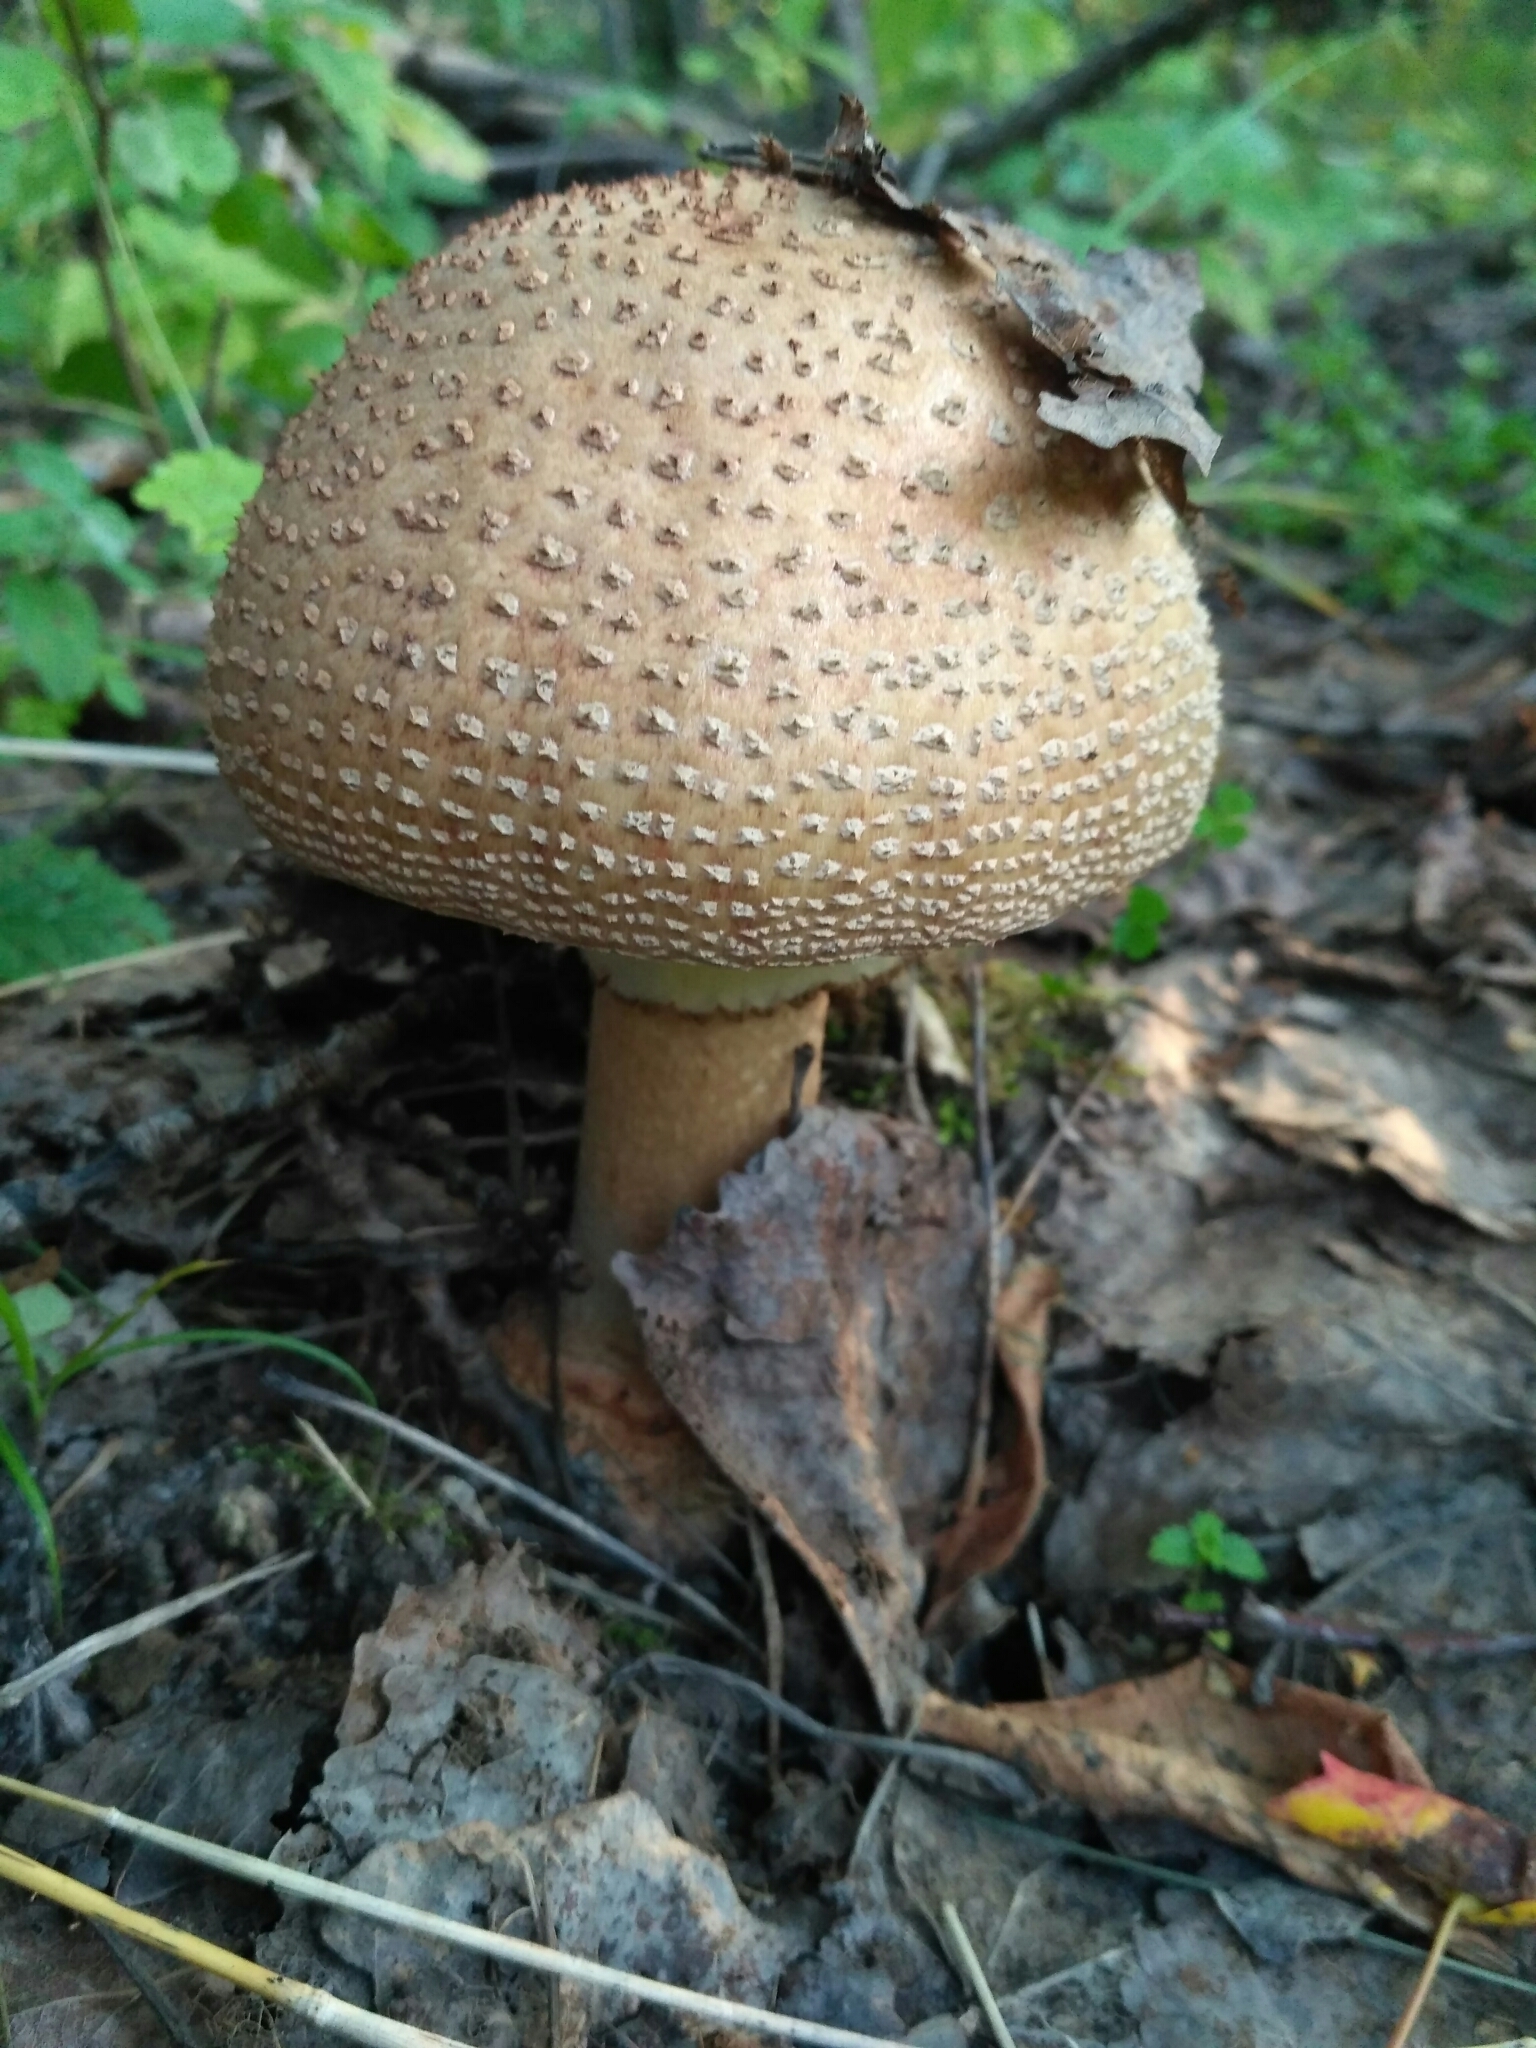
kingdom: Fungi
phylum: Basidiomycota
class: Agaricomycetes
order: Agaricales
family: Amanitaceae
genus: Amanita
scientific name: Amanita rubescens
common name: Blusher
